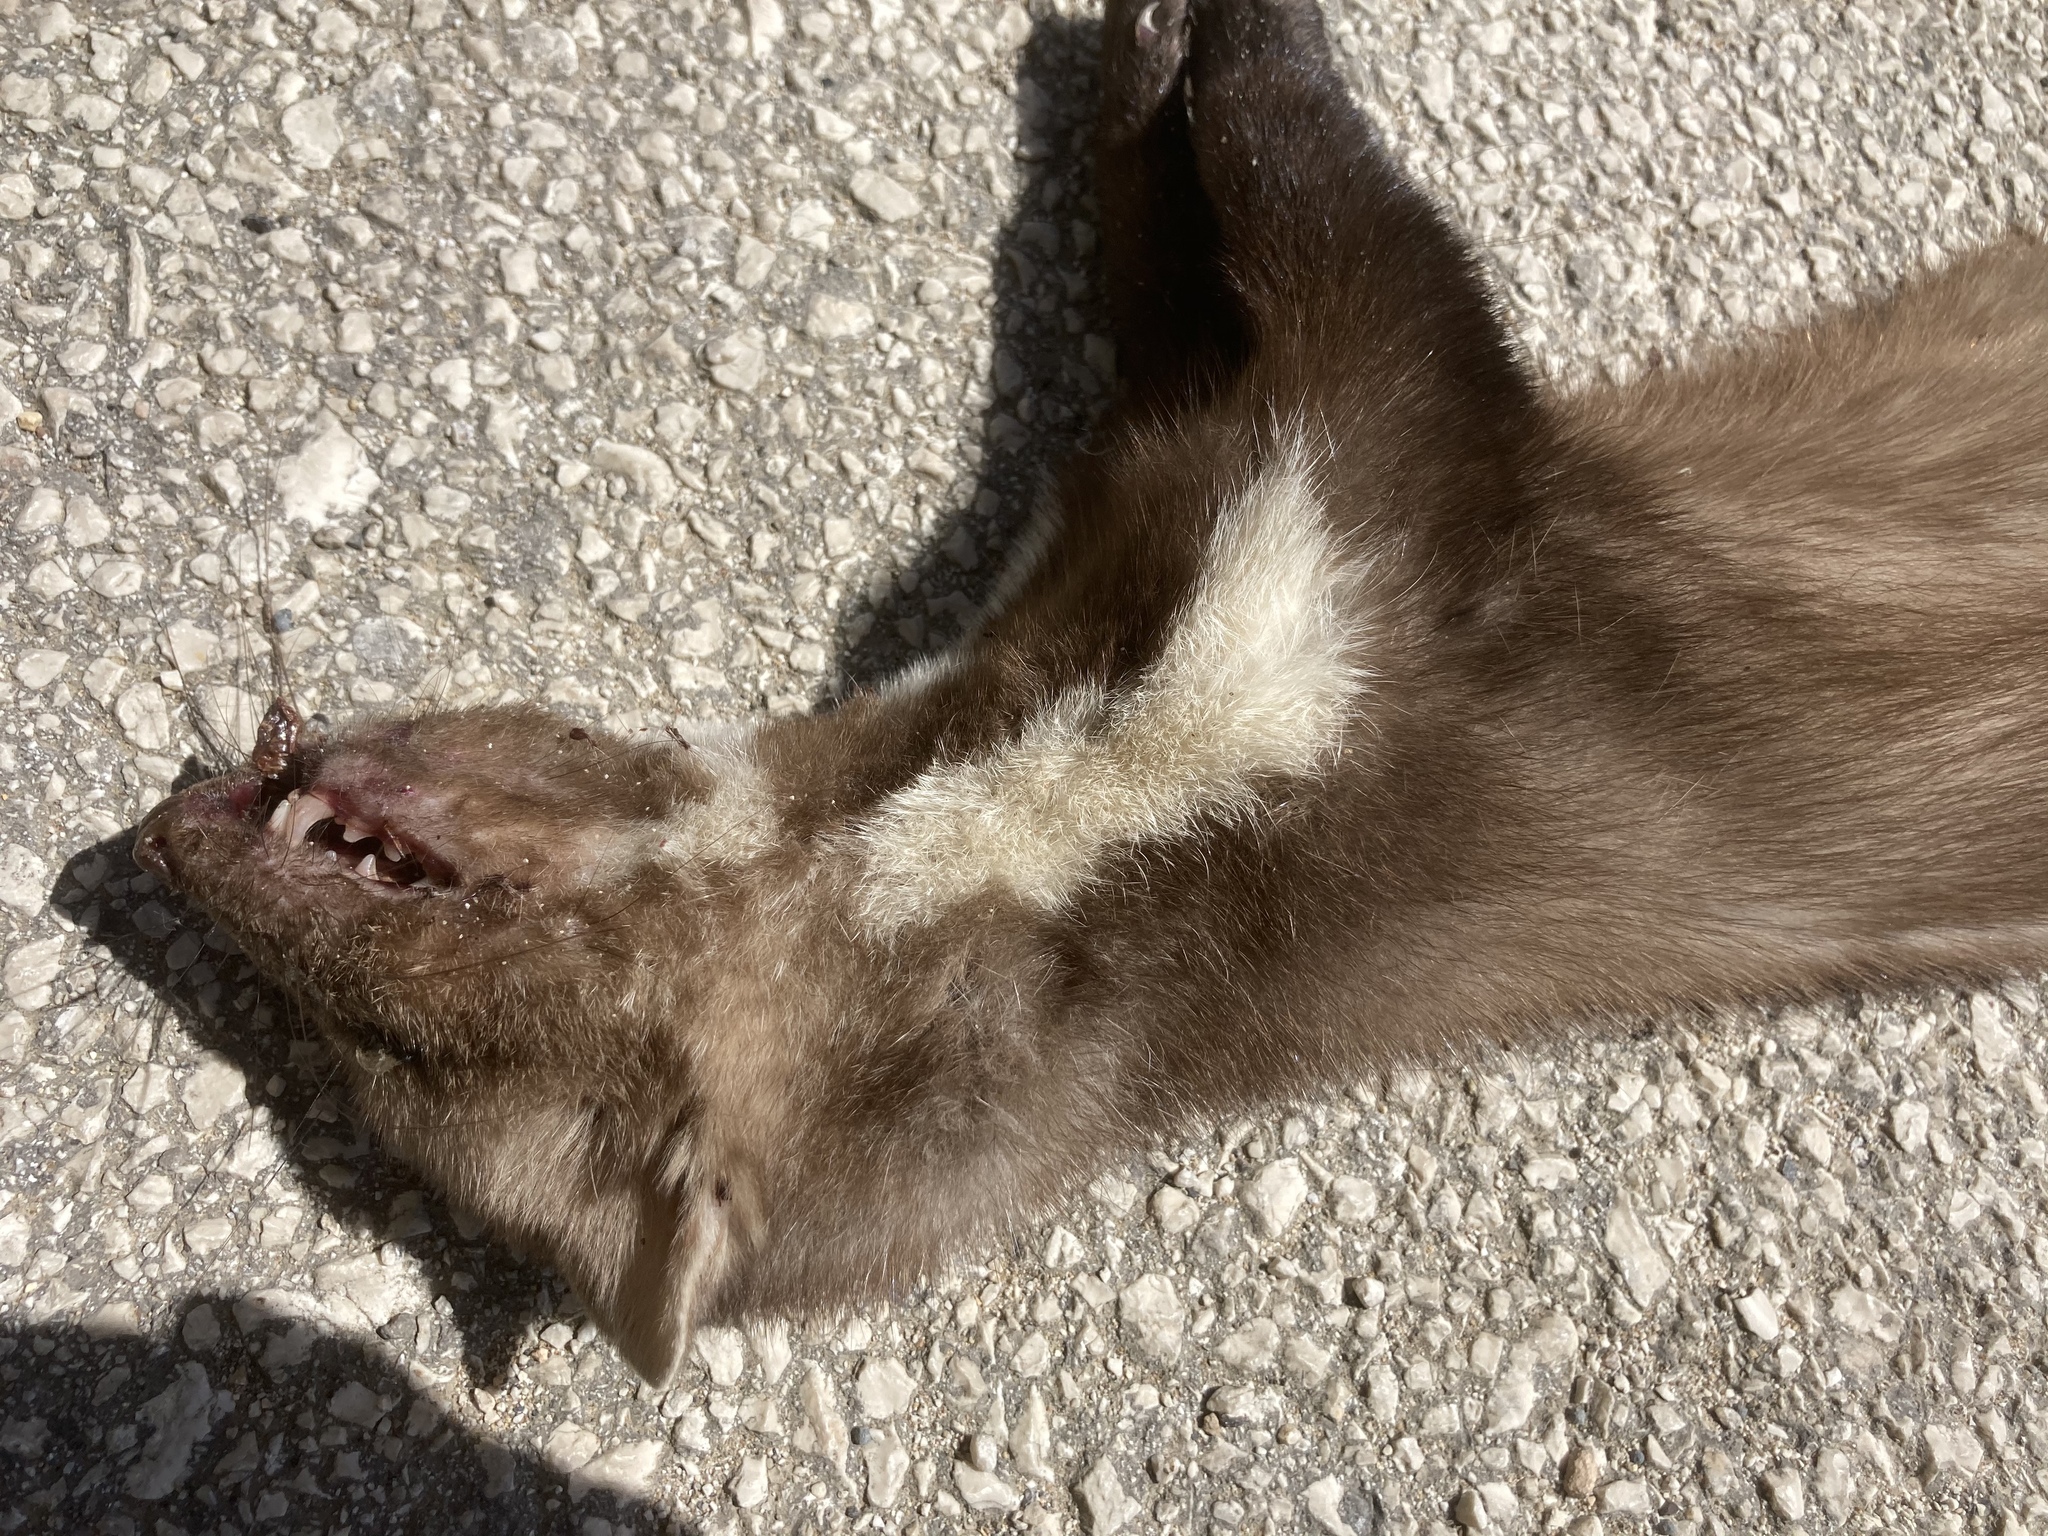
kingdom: Animalia
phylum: Chordata
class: Mammalia
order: Carnivora
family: Mustelidae
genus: Martes
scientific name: Martes foina
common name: Beech marten
